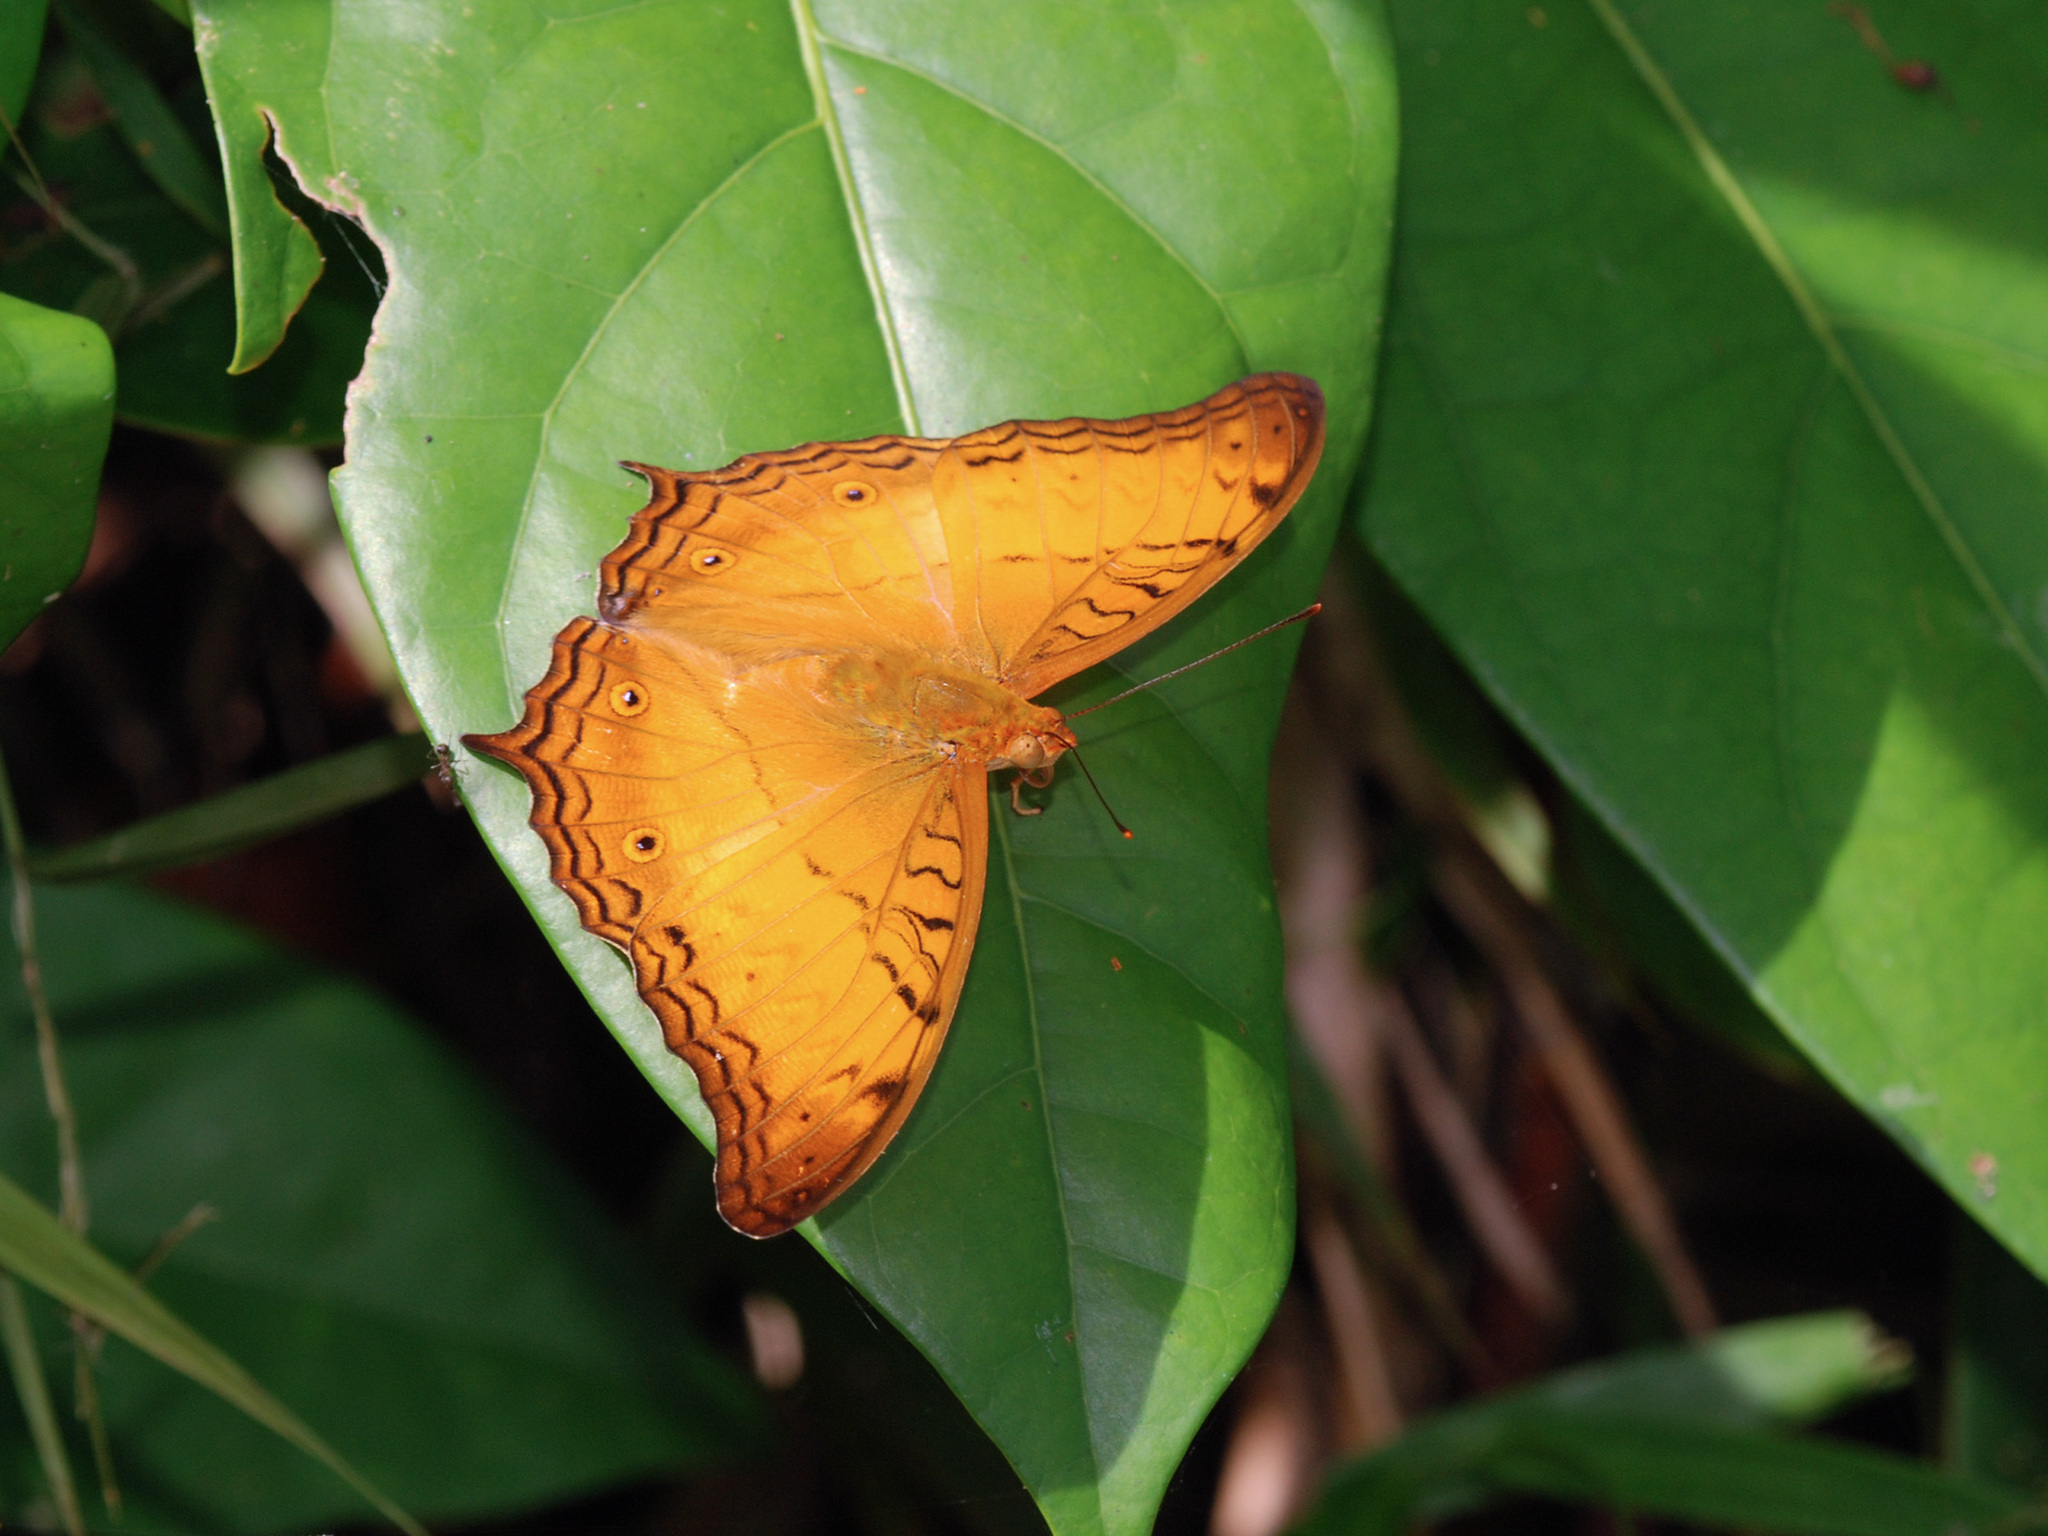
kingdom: Animalia
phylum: Arthropoda
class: Insecta
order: Lepidoptera
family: Nymphalidae
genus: Vindula
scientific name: Vindula deione
